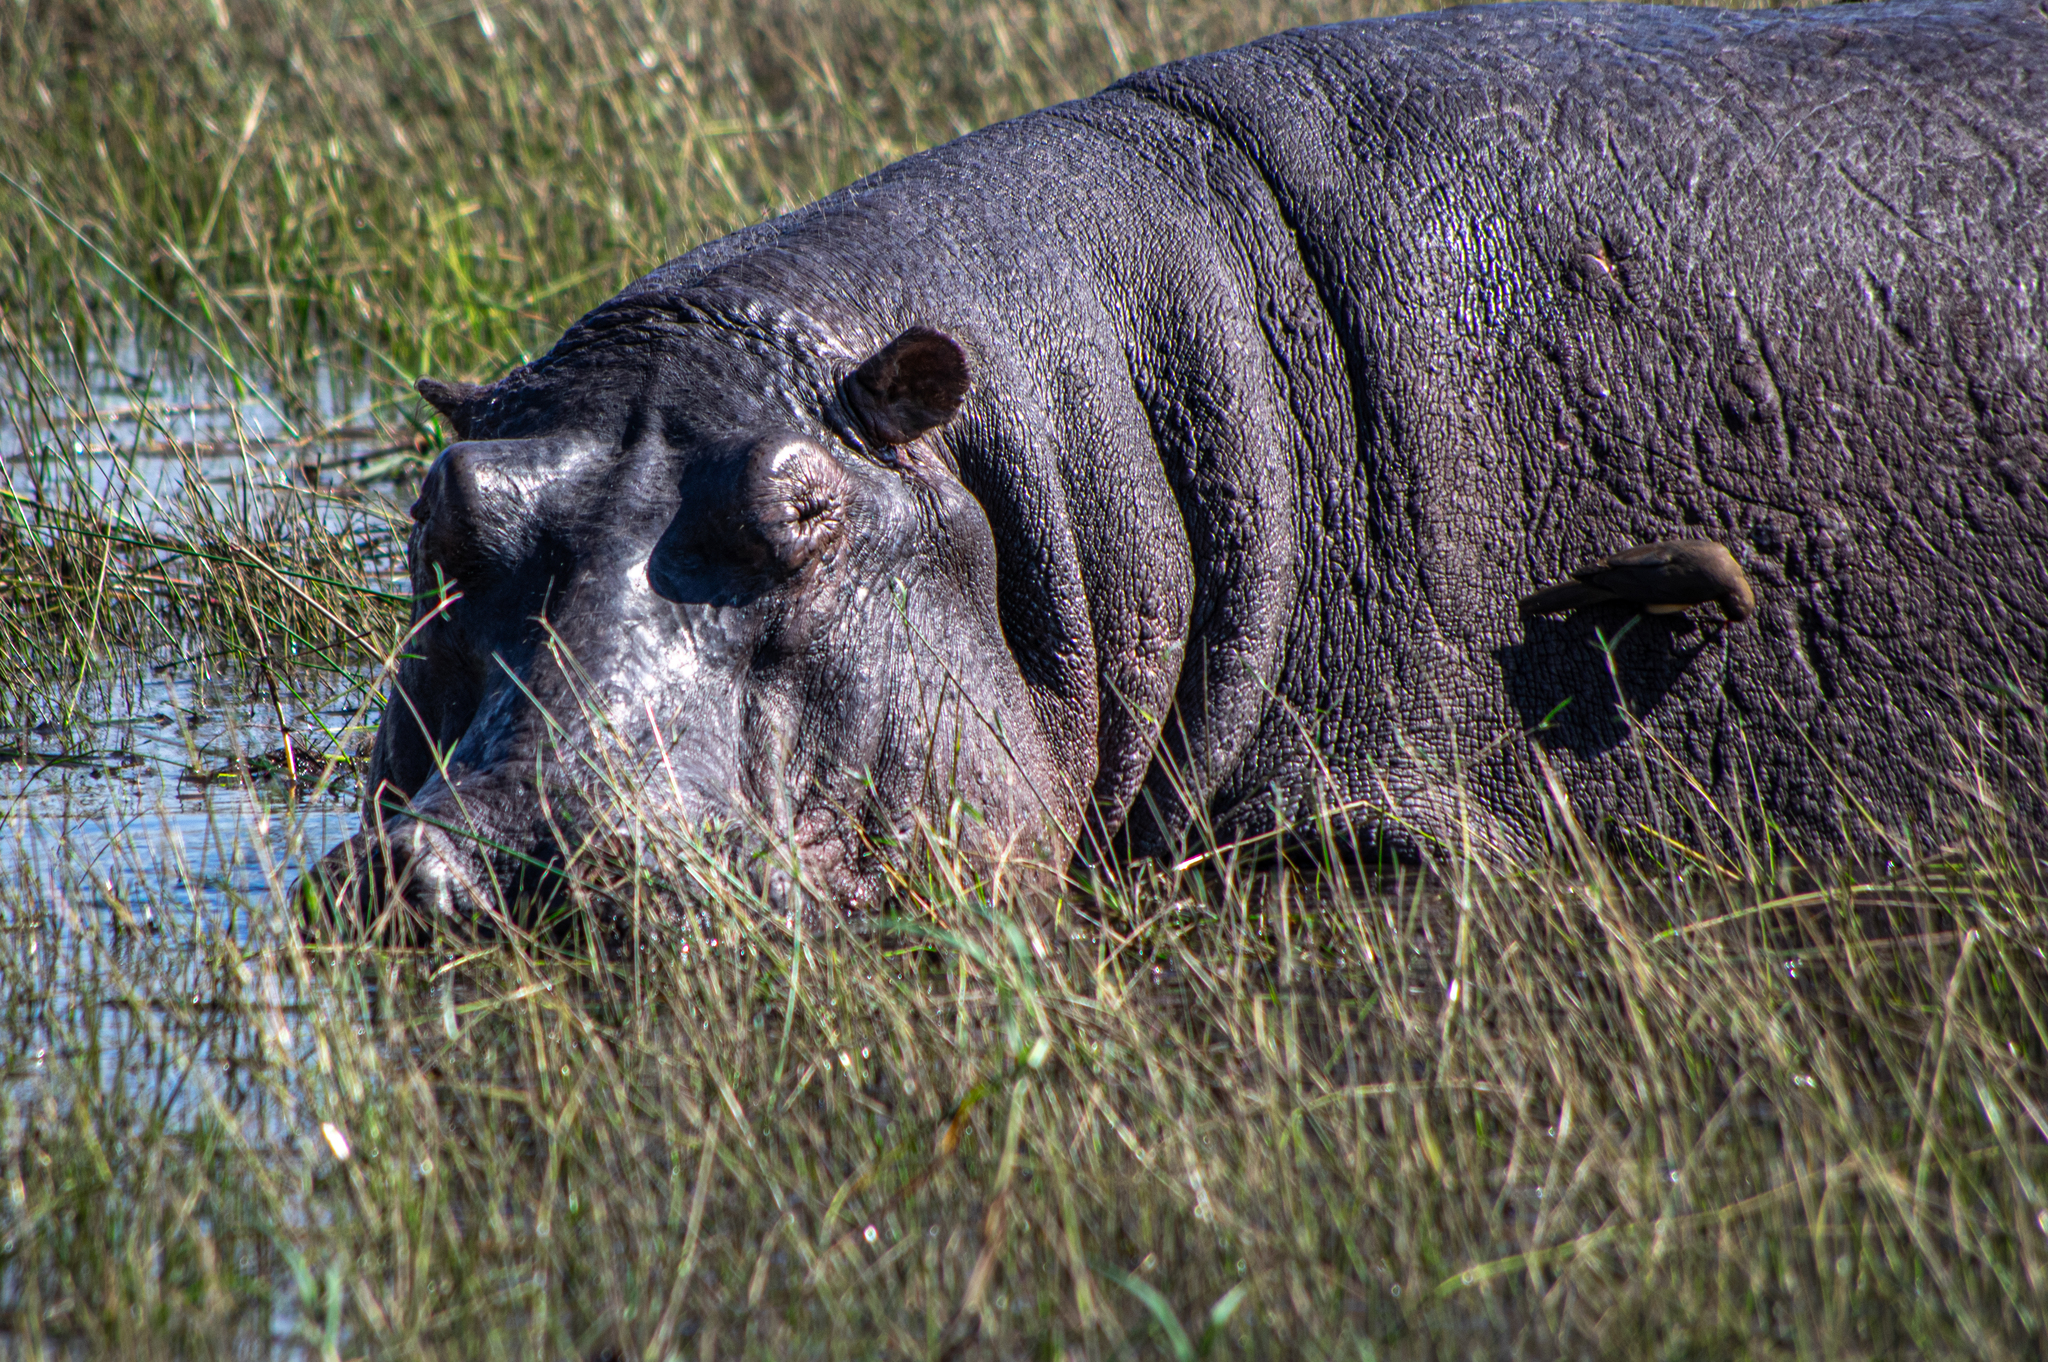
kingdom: Animalia
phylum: Chordata
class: Mammalia
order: Artiodactyla
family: Hippopotamidae
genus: Hippopotamus
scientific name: Hippopotamus amphibius
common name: Common hippopotamus
